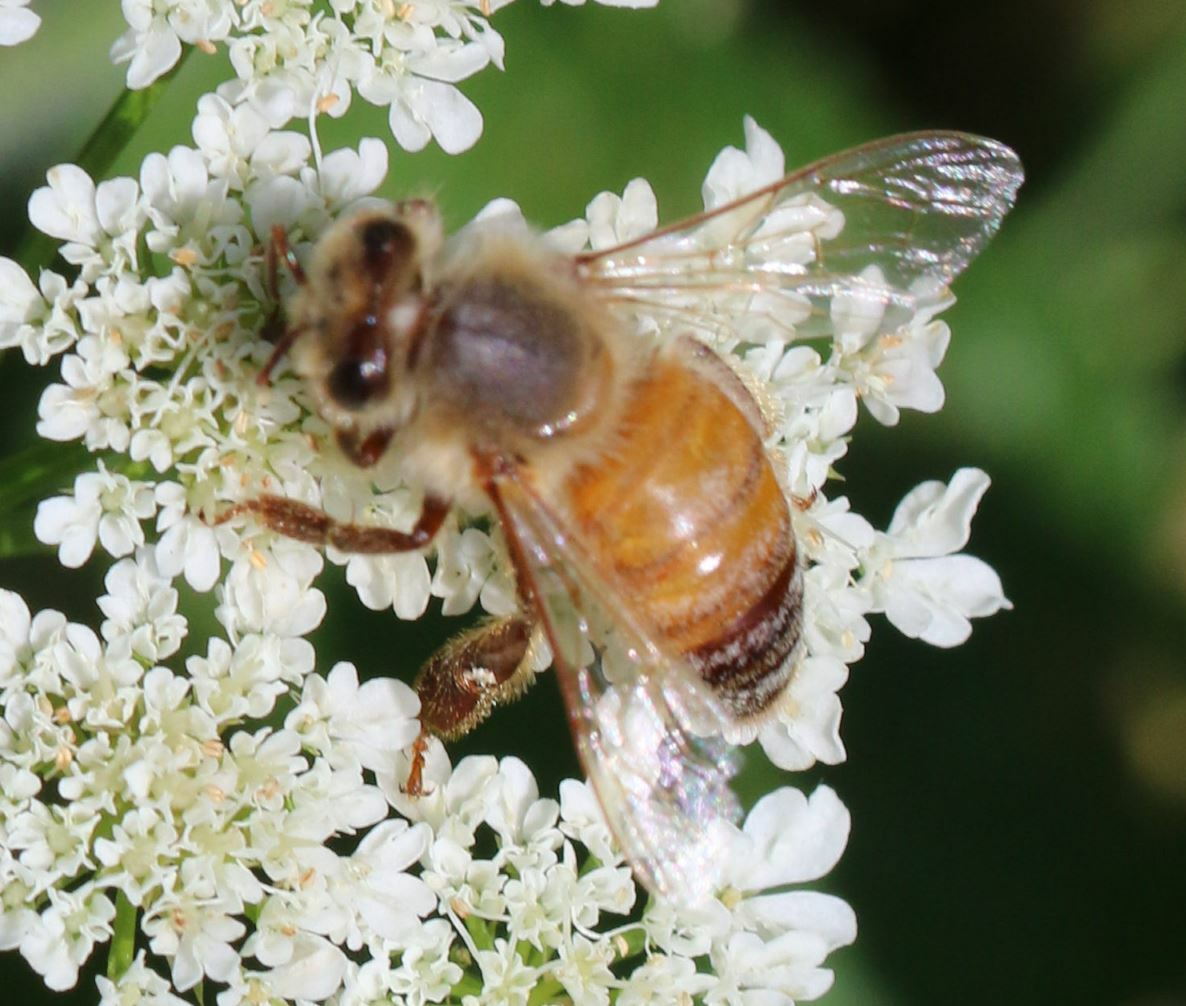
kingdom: Animalia
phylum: Arthropoda
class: Insecta
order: Hymenoptera
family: Apidae
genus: Apis
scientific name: Apis mellifera
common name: Honey bee
